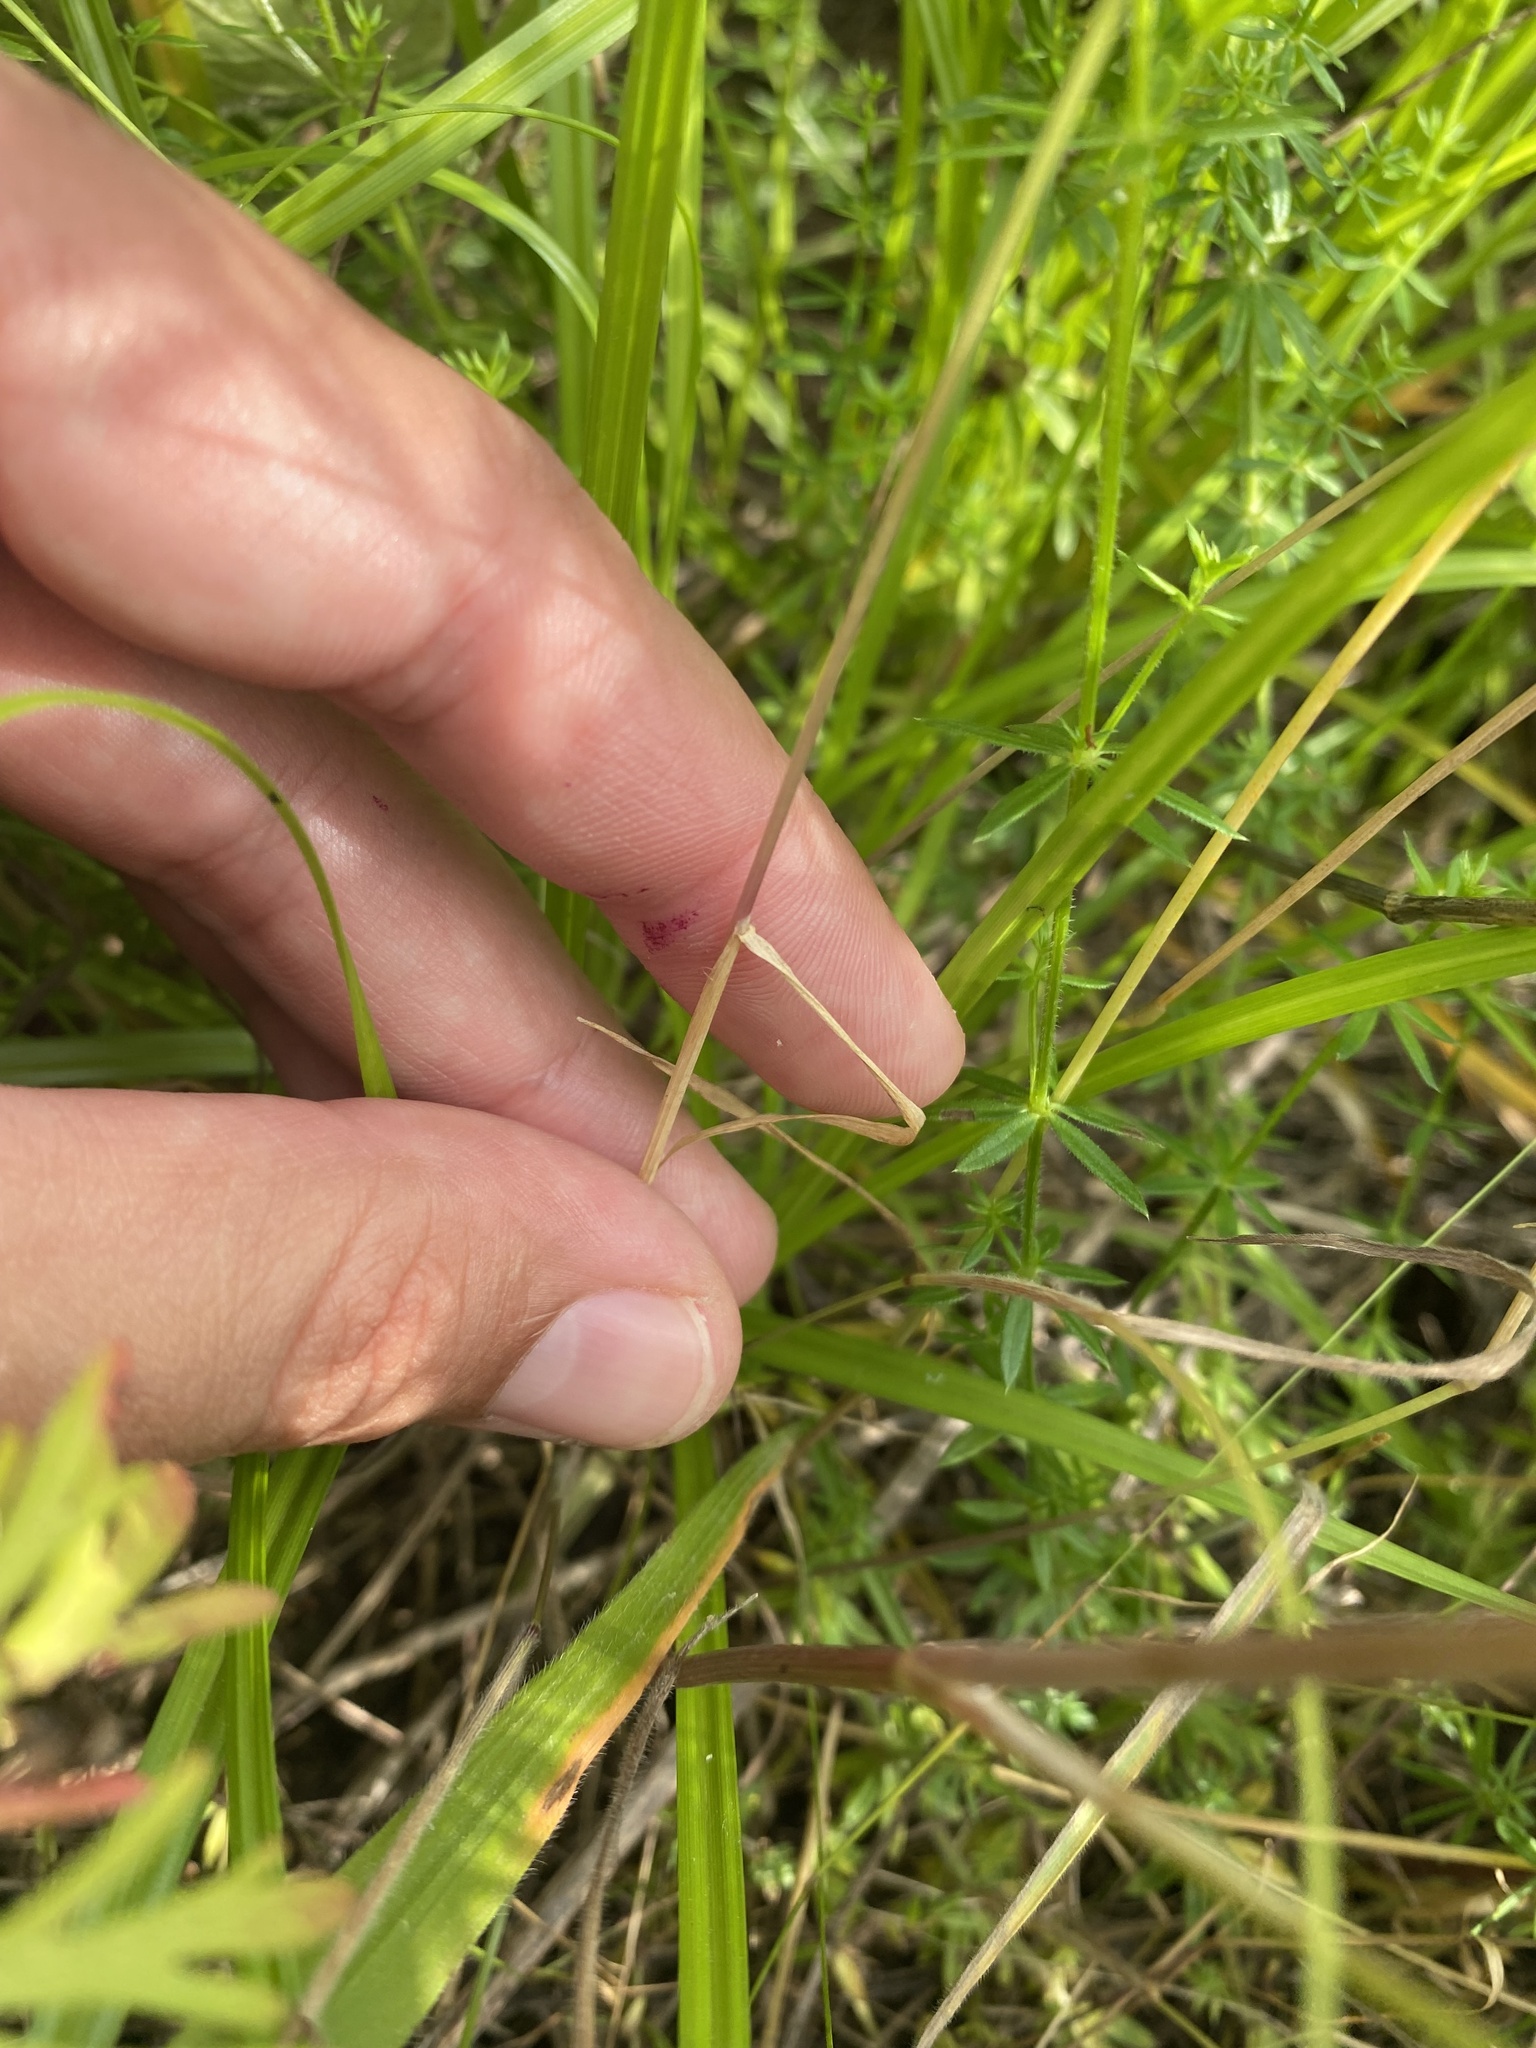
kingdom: Plantae
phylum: Tracheophyta
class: Liliopsida
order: Poales
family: Poaceae
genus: Alopecurus
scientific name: Alopecurus myosuroides
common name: Black-grass
